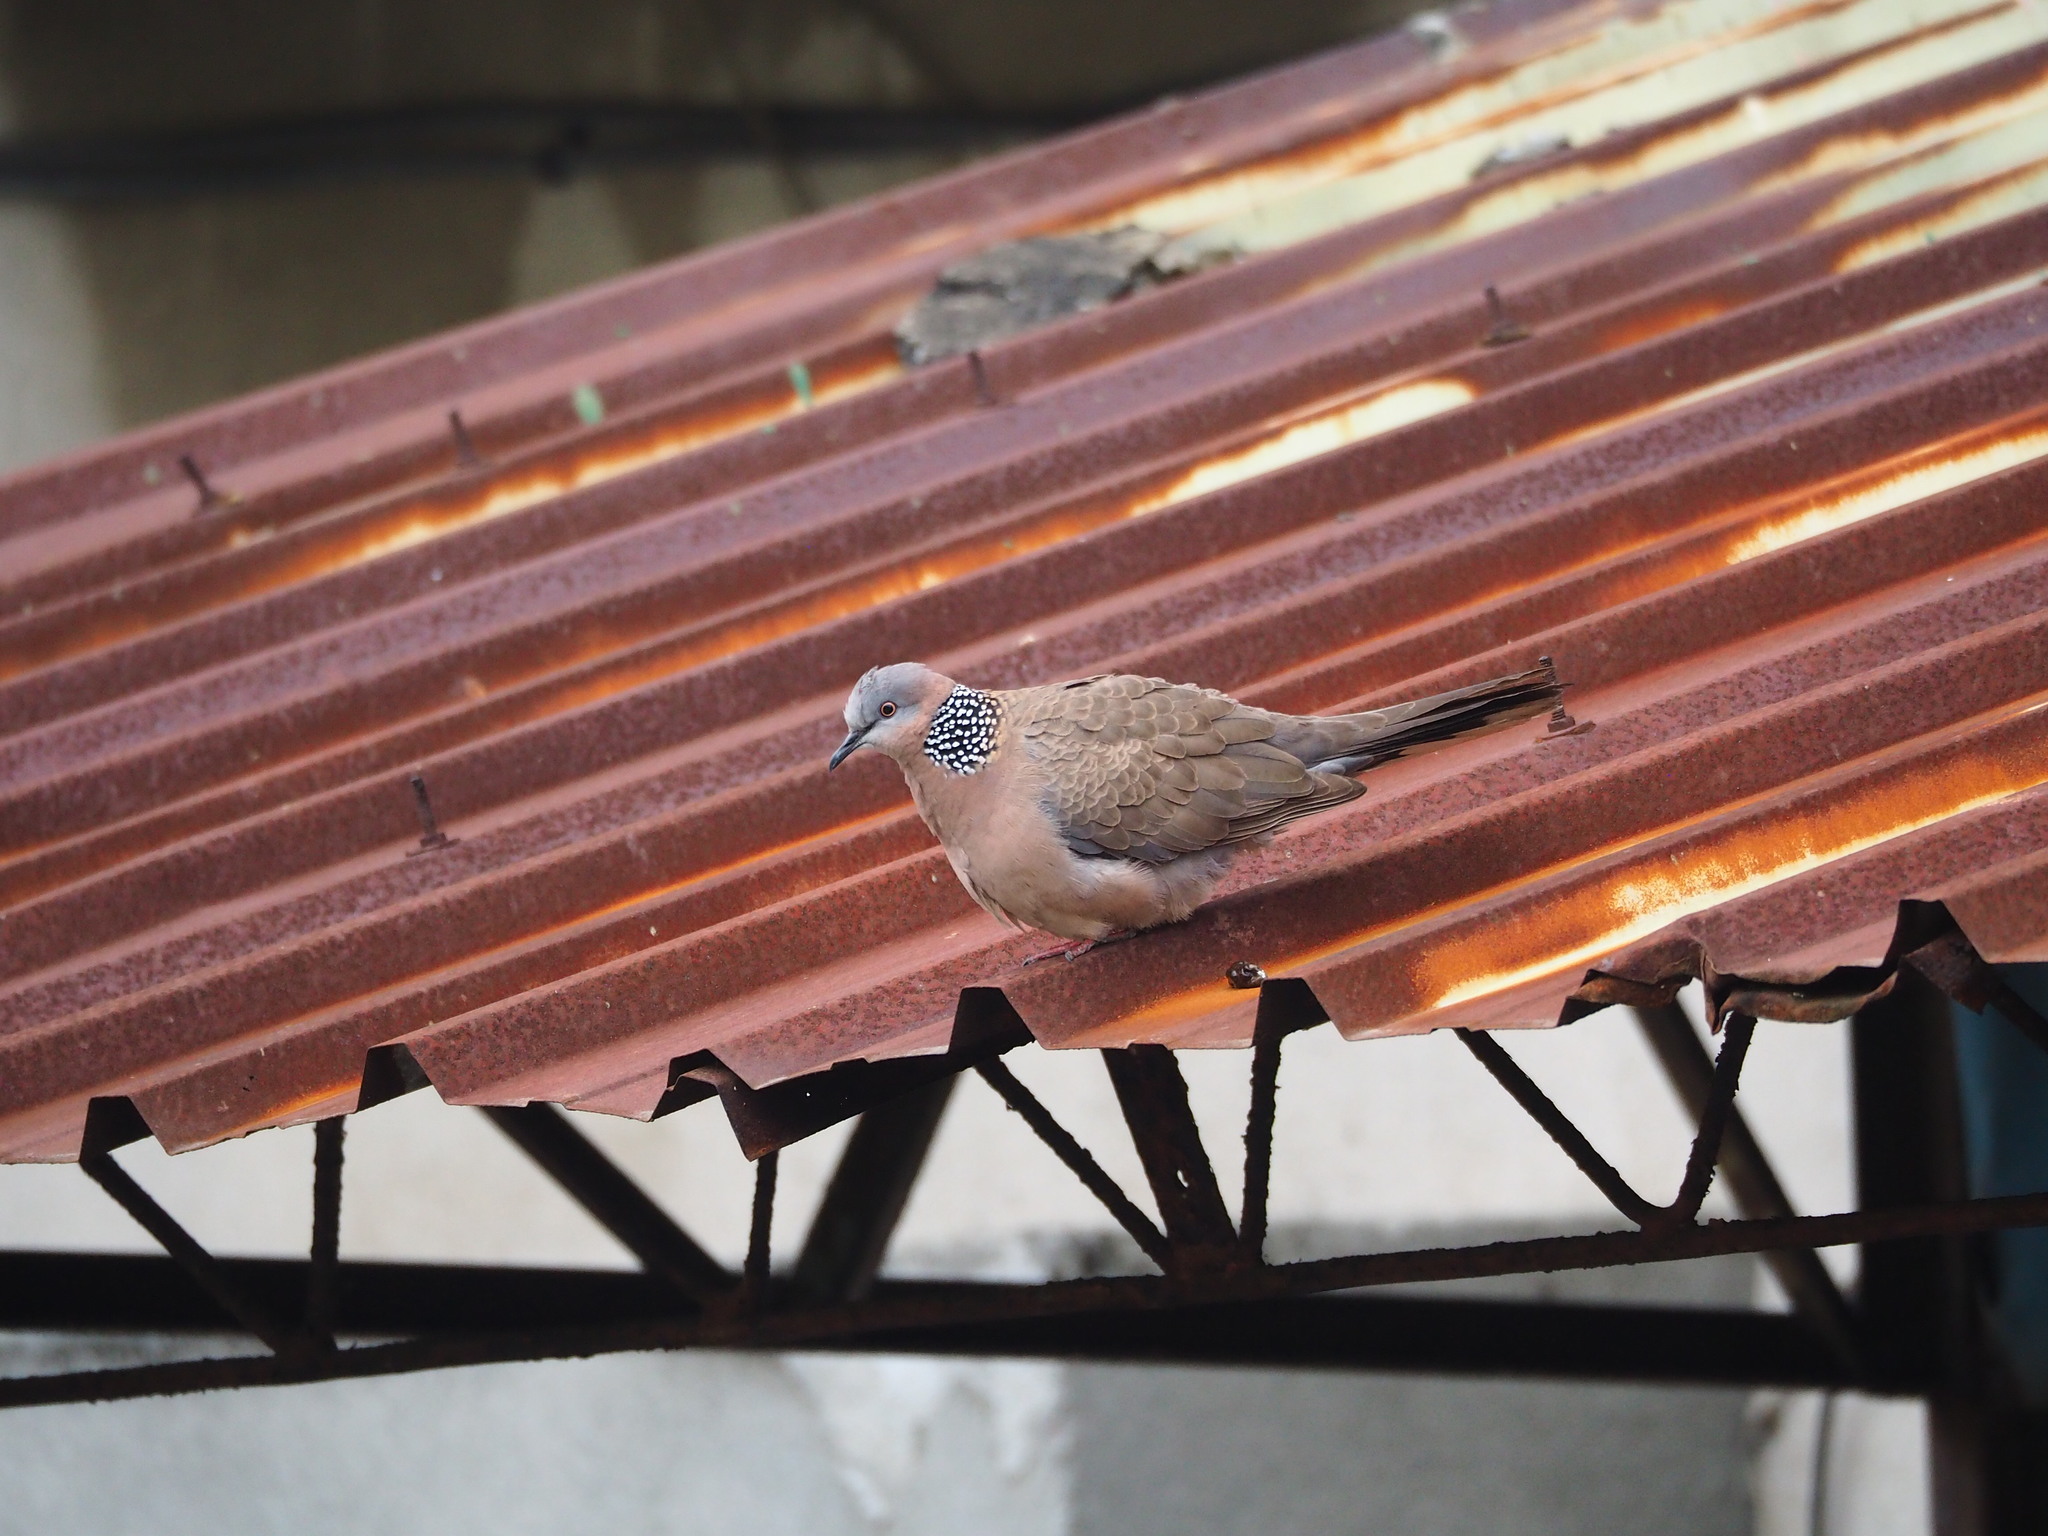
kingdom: Animalia
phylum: Chordata
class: Aves
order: Columbiformes
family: Columbidae
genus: Spilopelia
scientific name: Spilopelia chinensis
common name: Spotted dove
